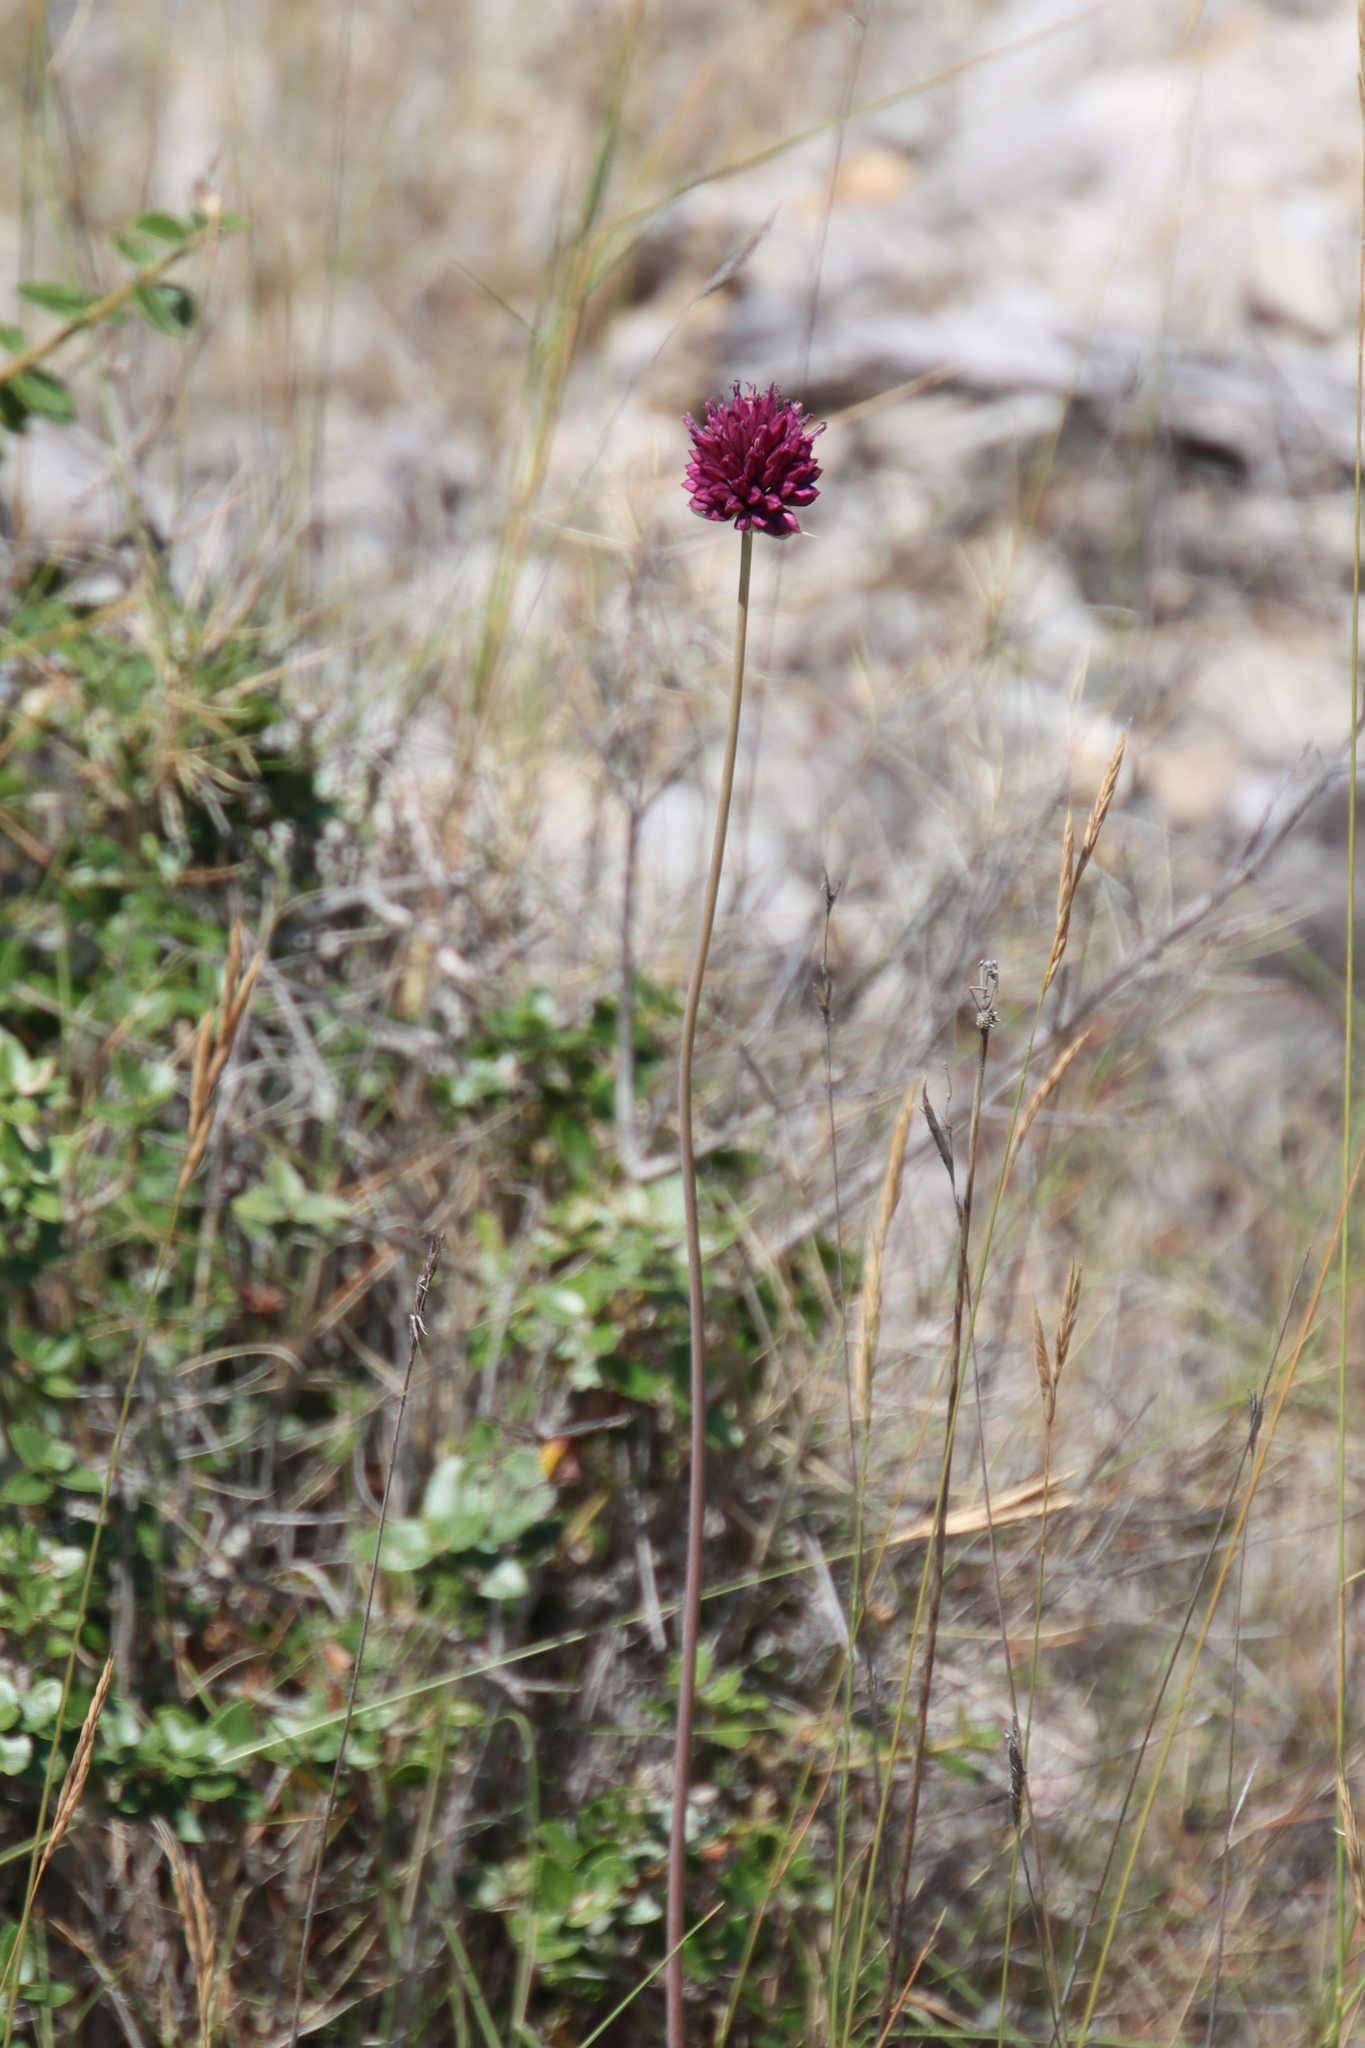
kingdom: Plantae
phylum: Tracheophyta
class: Liliopsida
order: Asparagales
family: Amaryllidaceae
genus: Allium
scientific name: Allium sphaerocephalon
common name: Round-headed leek
